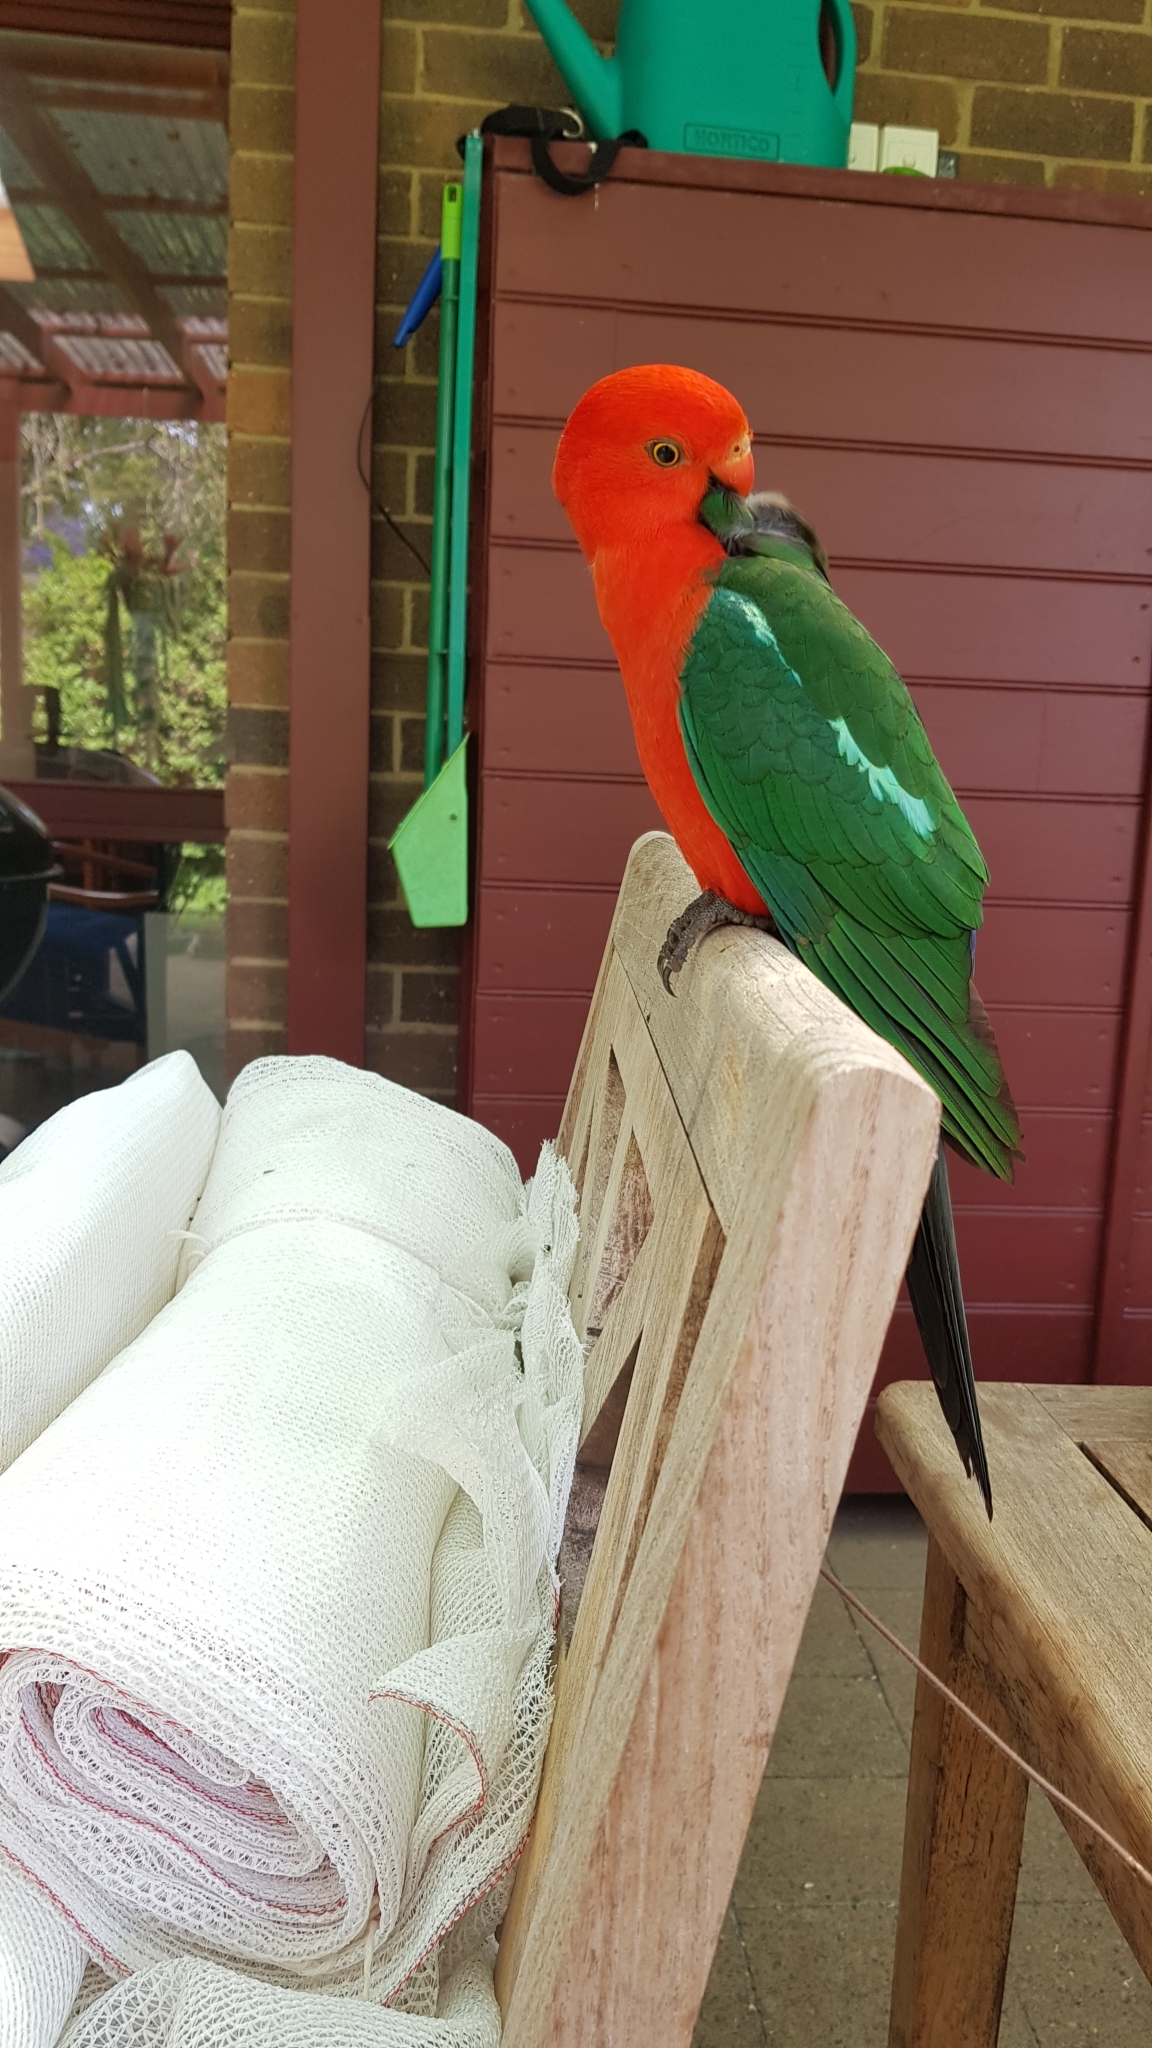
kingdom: Animalia
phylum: Chordata
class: Aves
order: Psittaciformes
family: Psittacidae
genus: Alisterus
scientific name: Alisterus scapularis
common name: Australian king parrot
